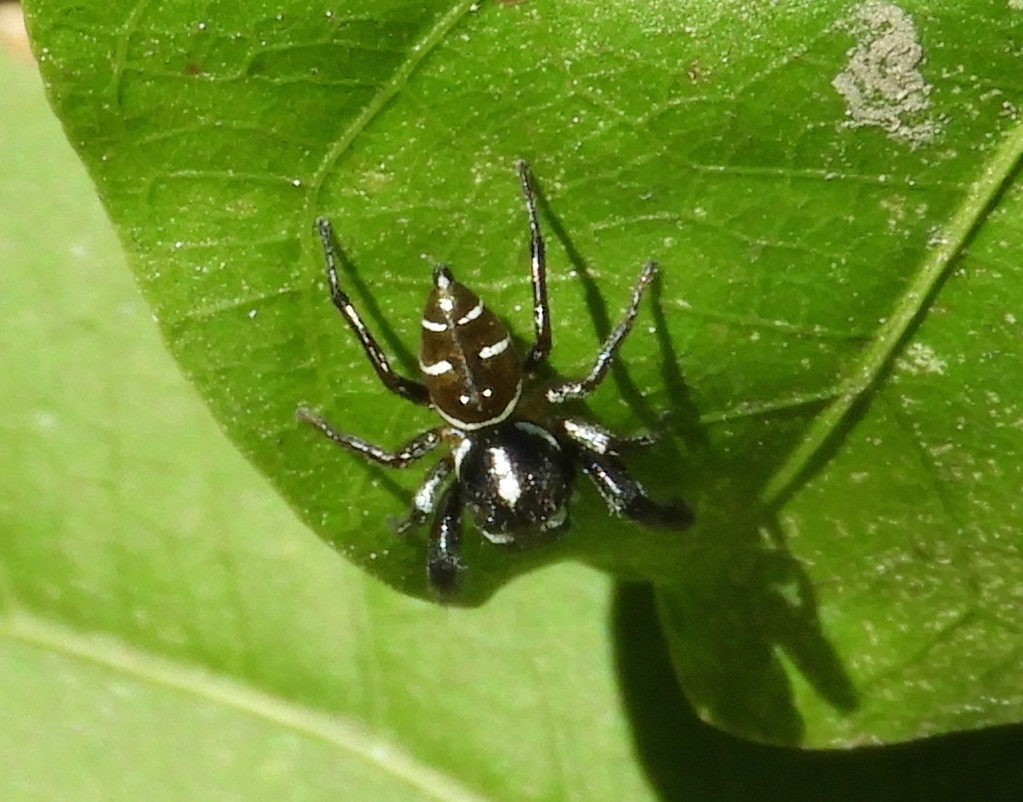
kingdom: Animalia
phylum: Arthropoda
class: Arachnida
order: Araneae
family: Salticidae
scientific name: Salticidae
